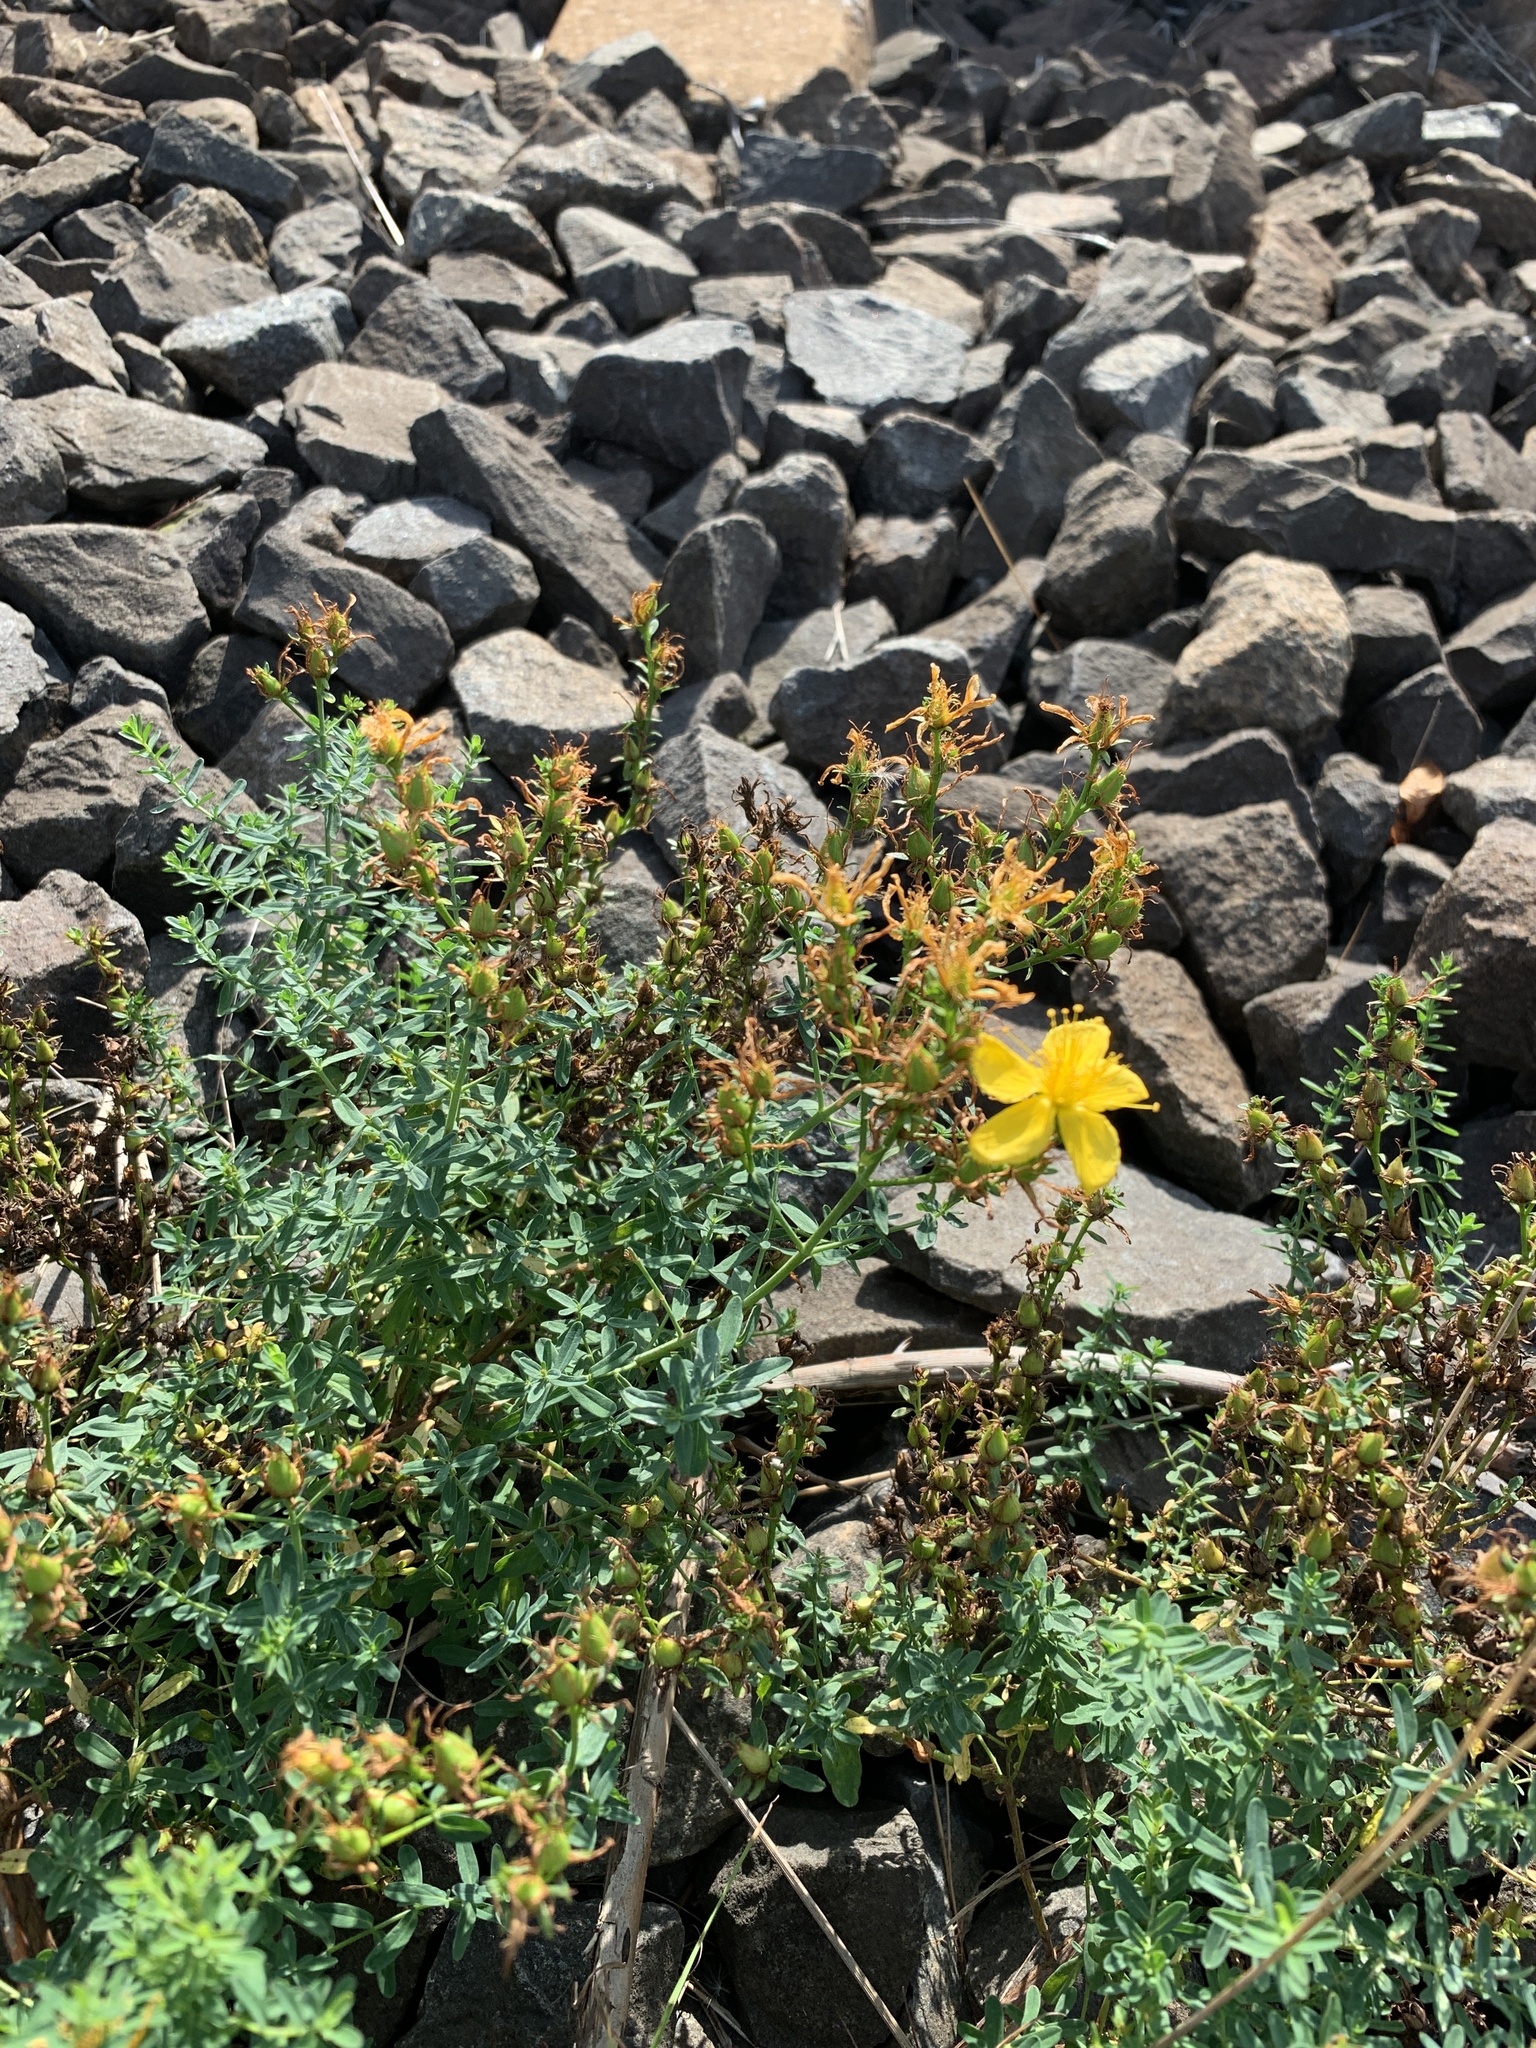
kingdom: Plantae
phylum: Tracheophyta
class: Magnoliopsida
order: Malpighiales
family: Hypericaceae
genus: Hypericum
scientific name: Hypericum perforatum
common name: Common st. johnswort
